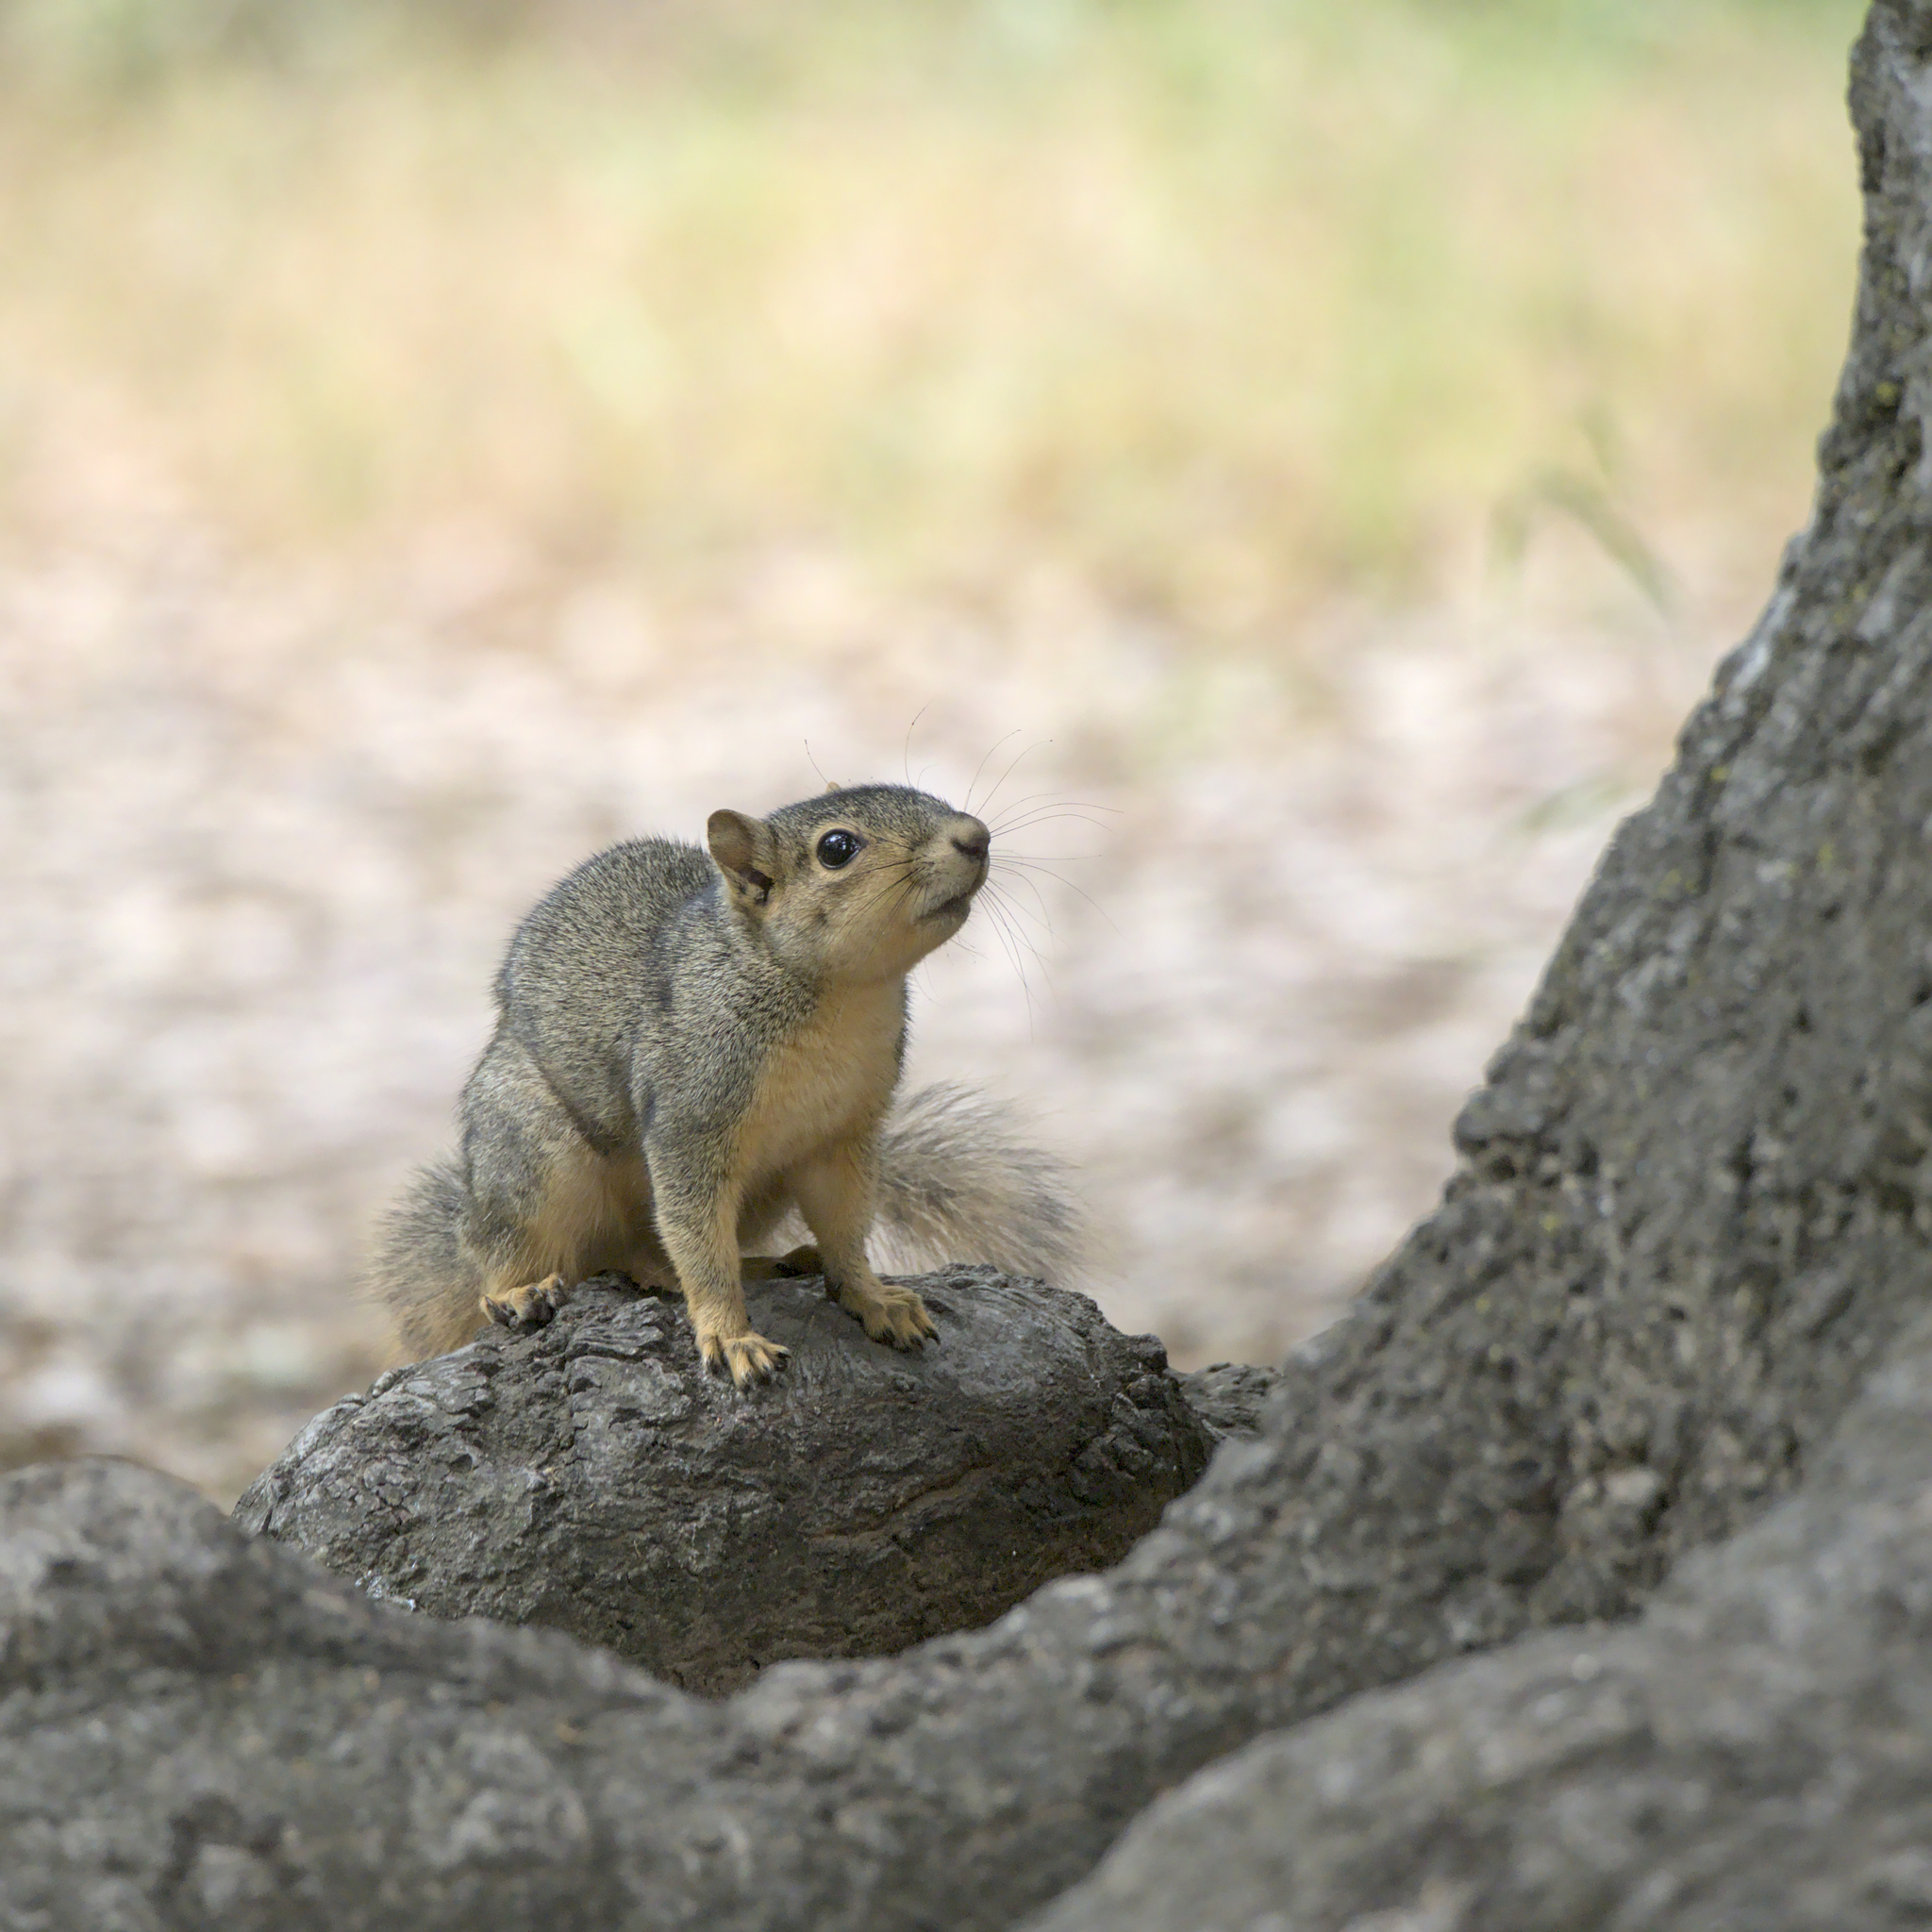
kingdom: Animalia
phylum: Chordata
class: Mammalia
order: Rodentia
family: Sciuridae
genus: Sciurus
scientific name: Sciurus niger
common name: Fox squirrel
